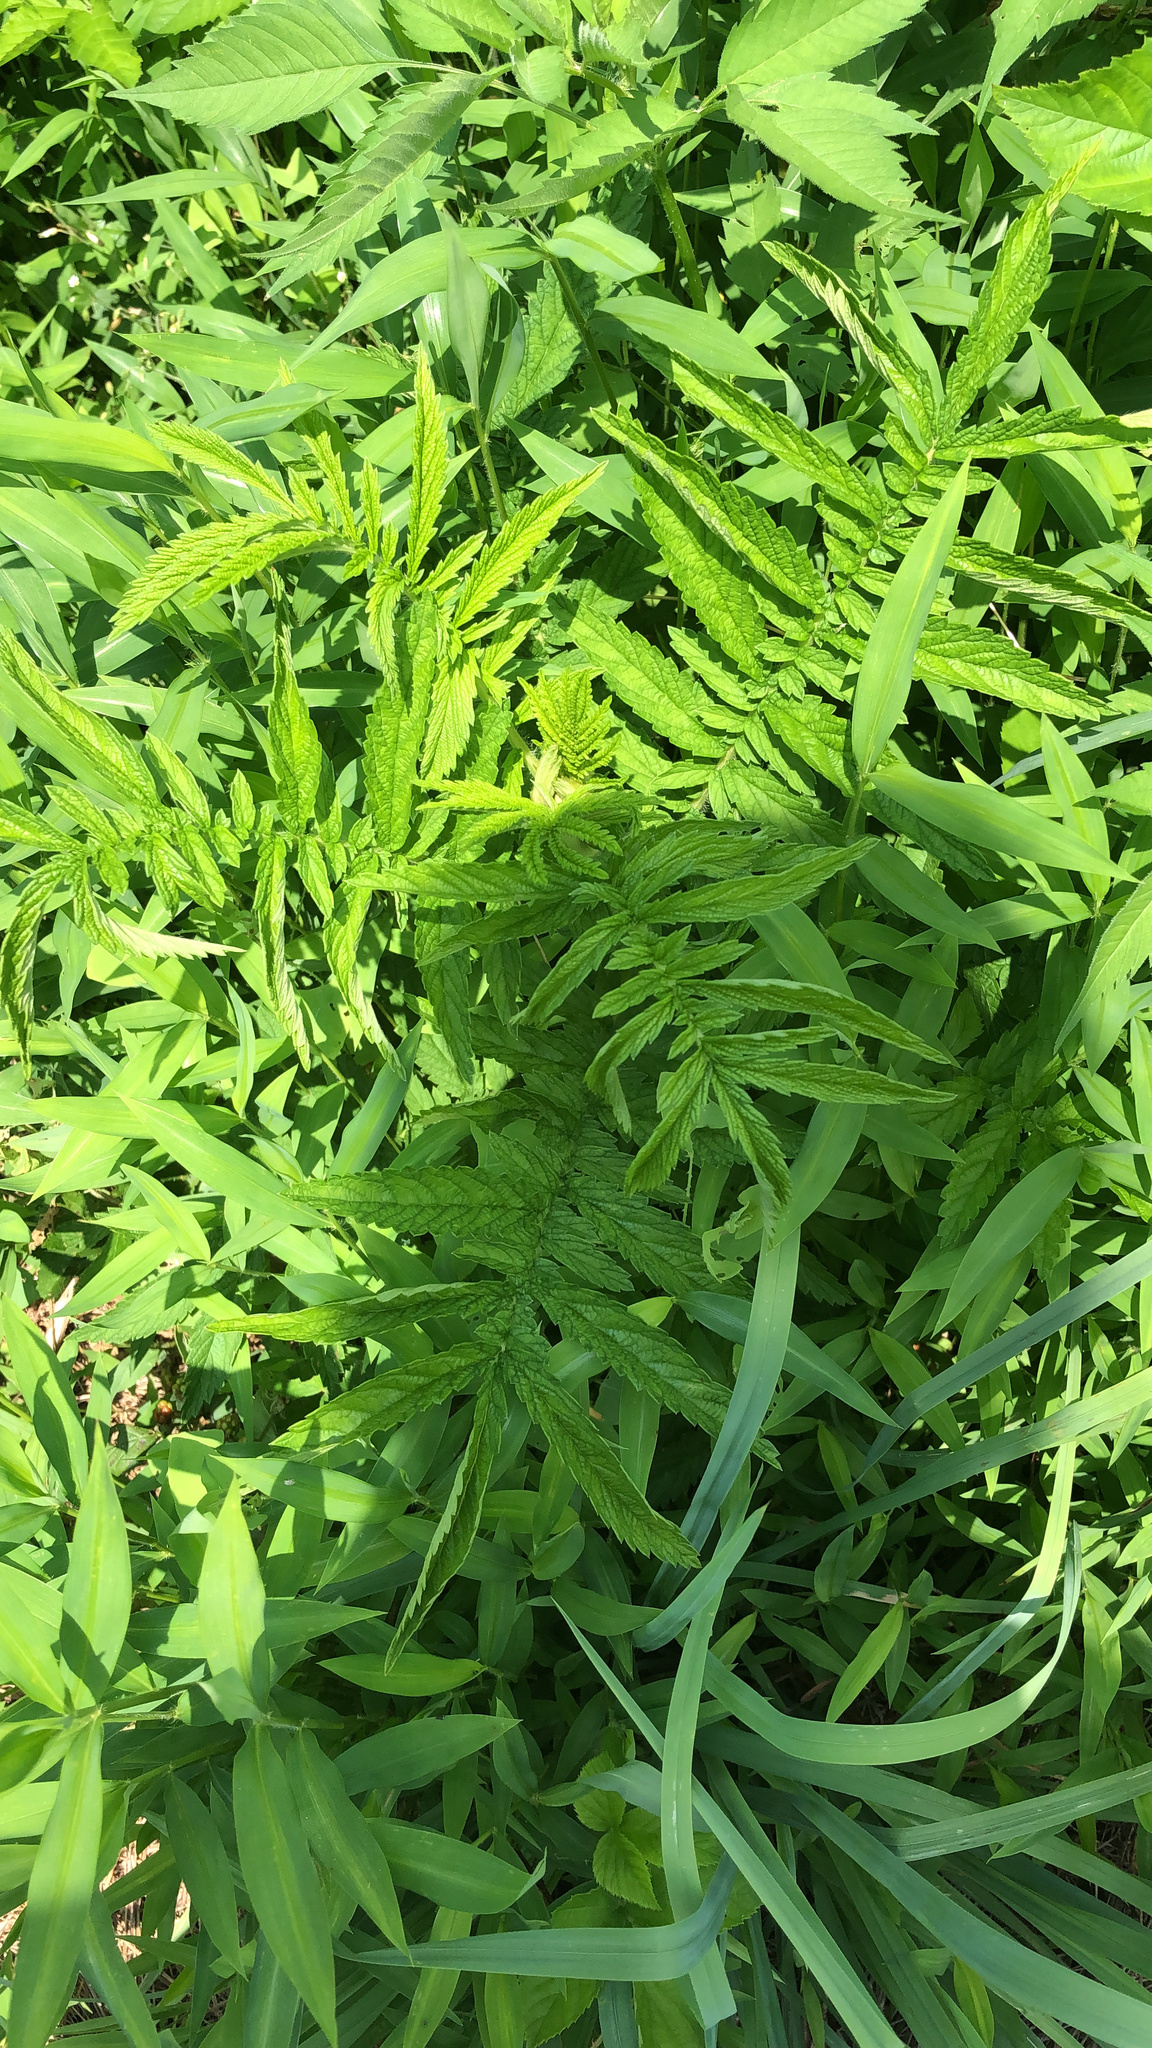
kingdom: Plantae
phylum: Tracheophyta
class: Magnoliopsida
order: Rosales
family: Rosaceae
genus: Agrimonia
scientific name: Agrimonia parviflora
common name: Harvest-lice
